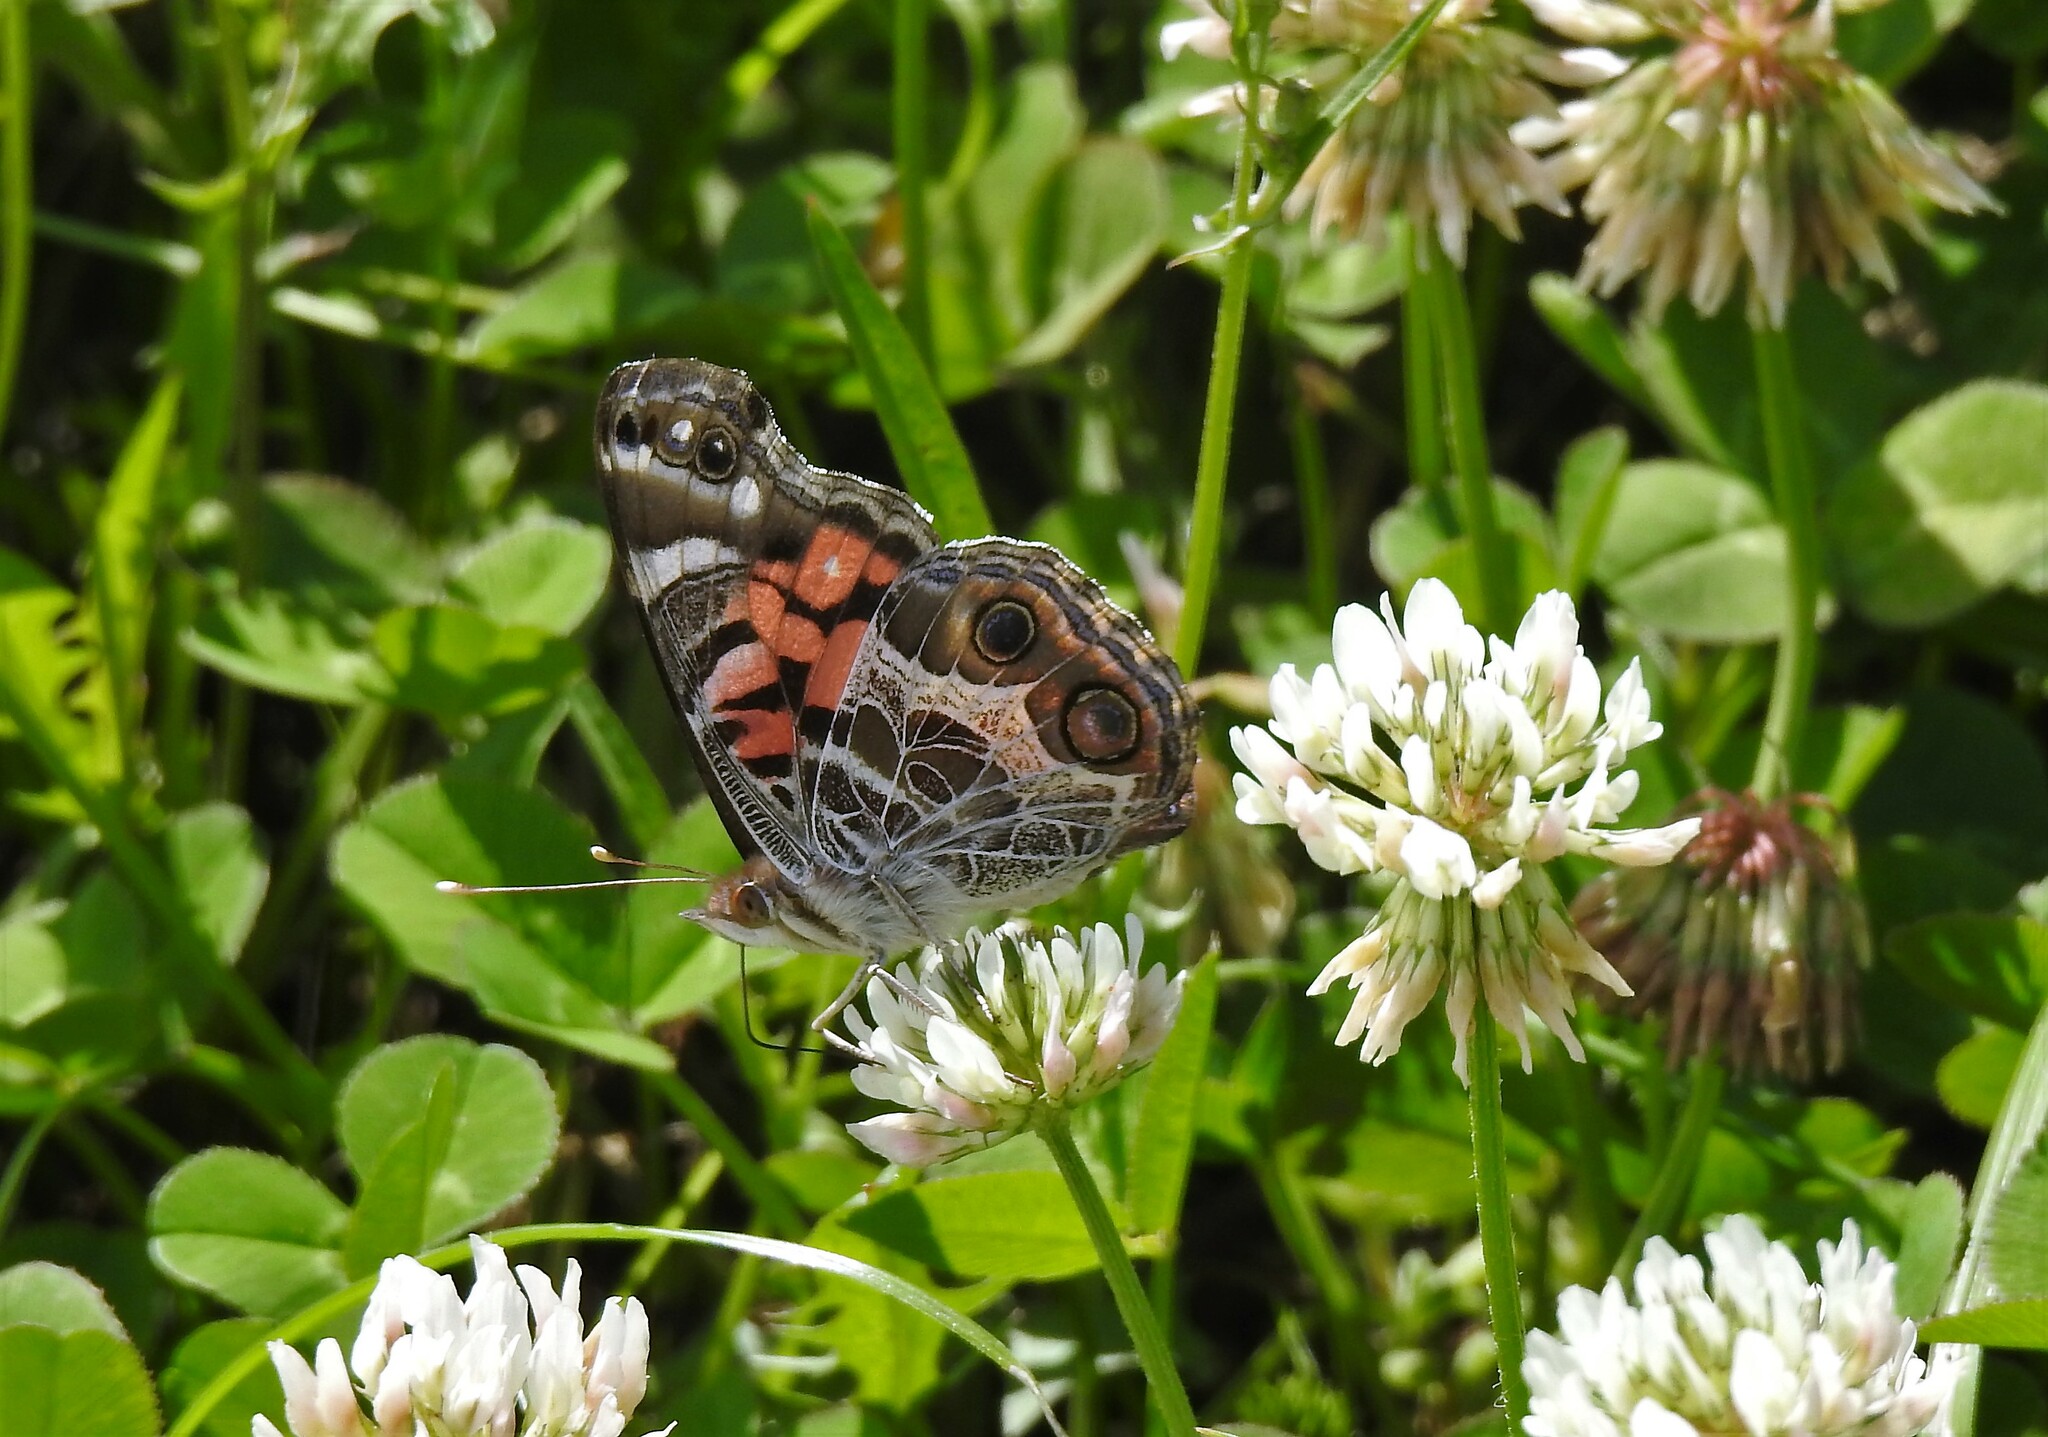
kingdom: Animalia
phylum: Arthropoda
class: Insecta
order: Lepidoptera
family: Nymphalidae
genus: Vanessa
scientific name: Vanessa virginiensis
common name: American lady
